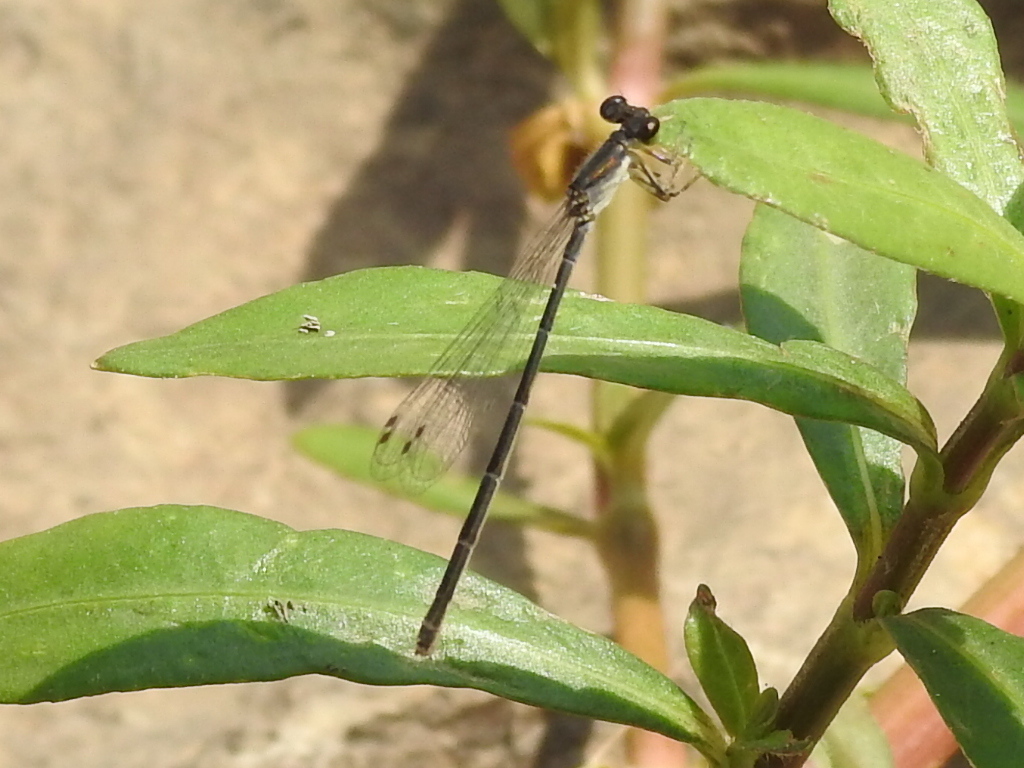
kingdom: Animalia
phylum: Arthropoda
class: Insecta
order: Odonata
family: Coenagrionidae
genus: Ischnura
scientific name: Ischnura posita
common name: Fragile forktail
